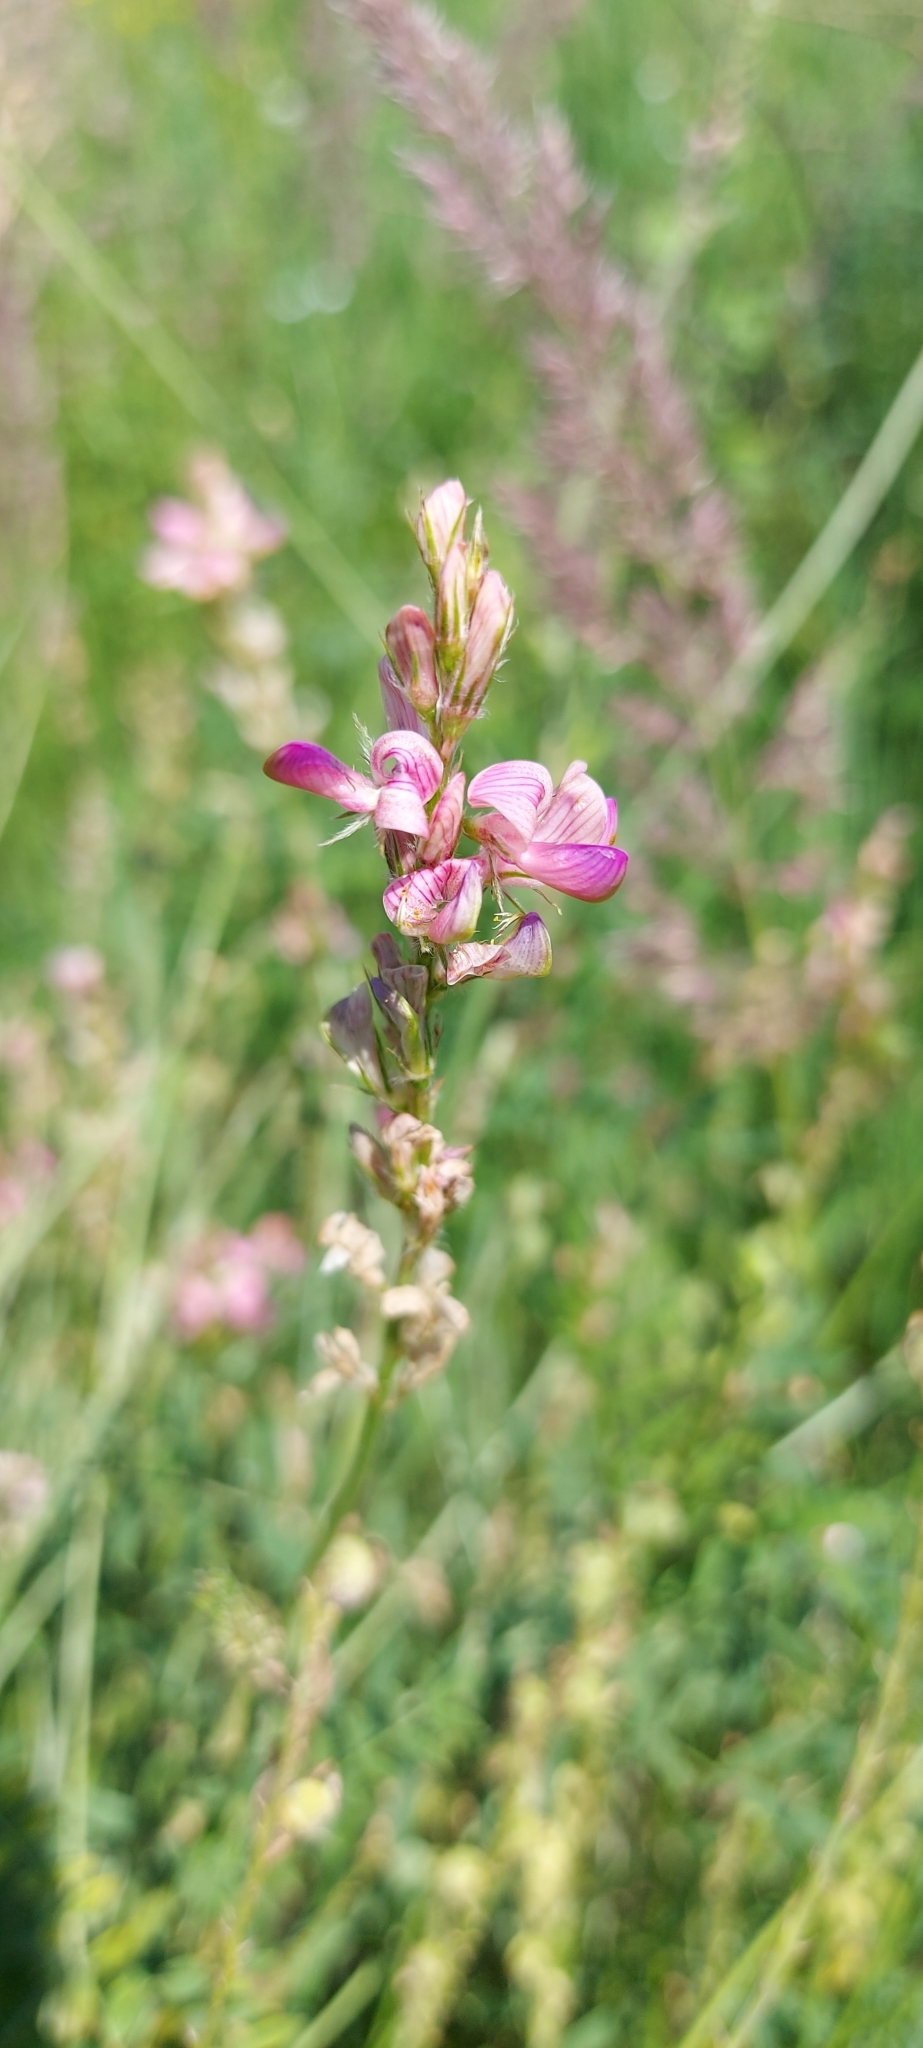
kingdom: Plantae
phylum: Tracheophyta
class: Magnoliopsida
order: Fabales
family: Fabaceae
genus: Onobrychis
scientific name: Onobrychis viciifolia
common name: Sainfoin
